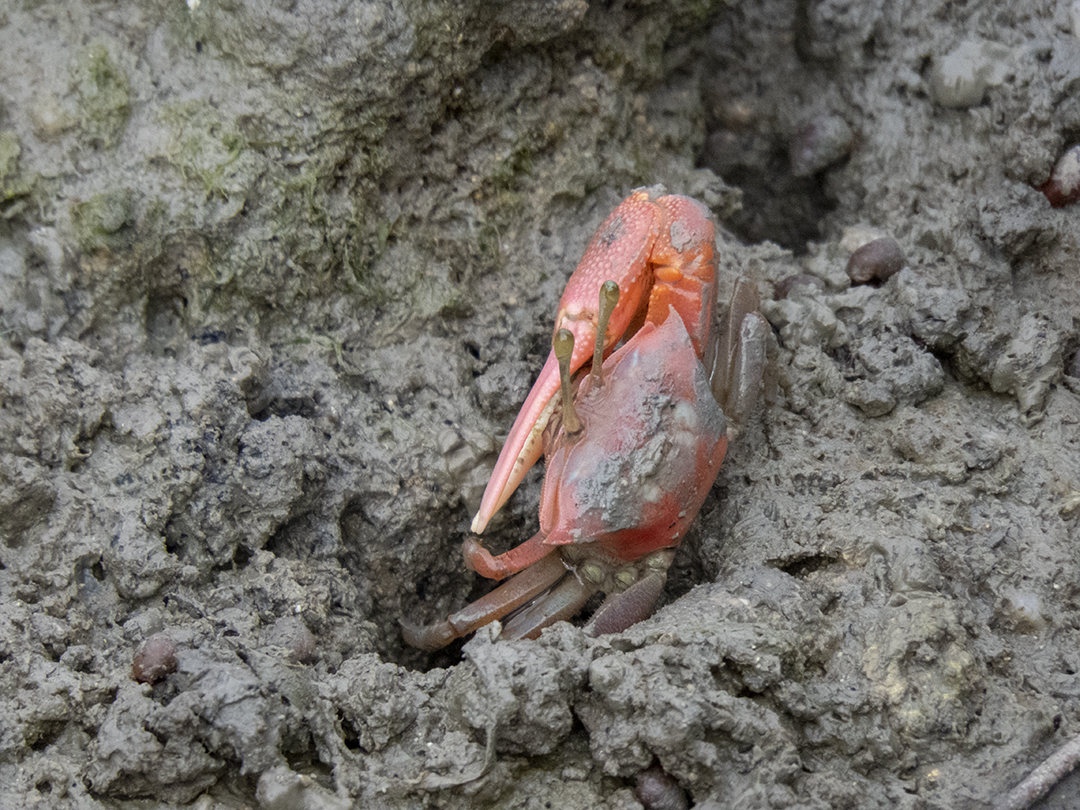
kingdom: Animalia
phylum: Arthropoda
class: Malacostraca
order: Decapoda
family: Ocypodidae
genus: Tubuca
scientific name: Tubuca rosea
